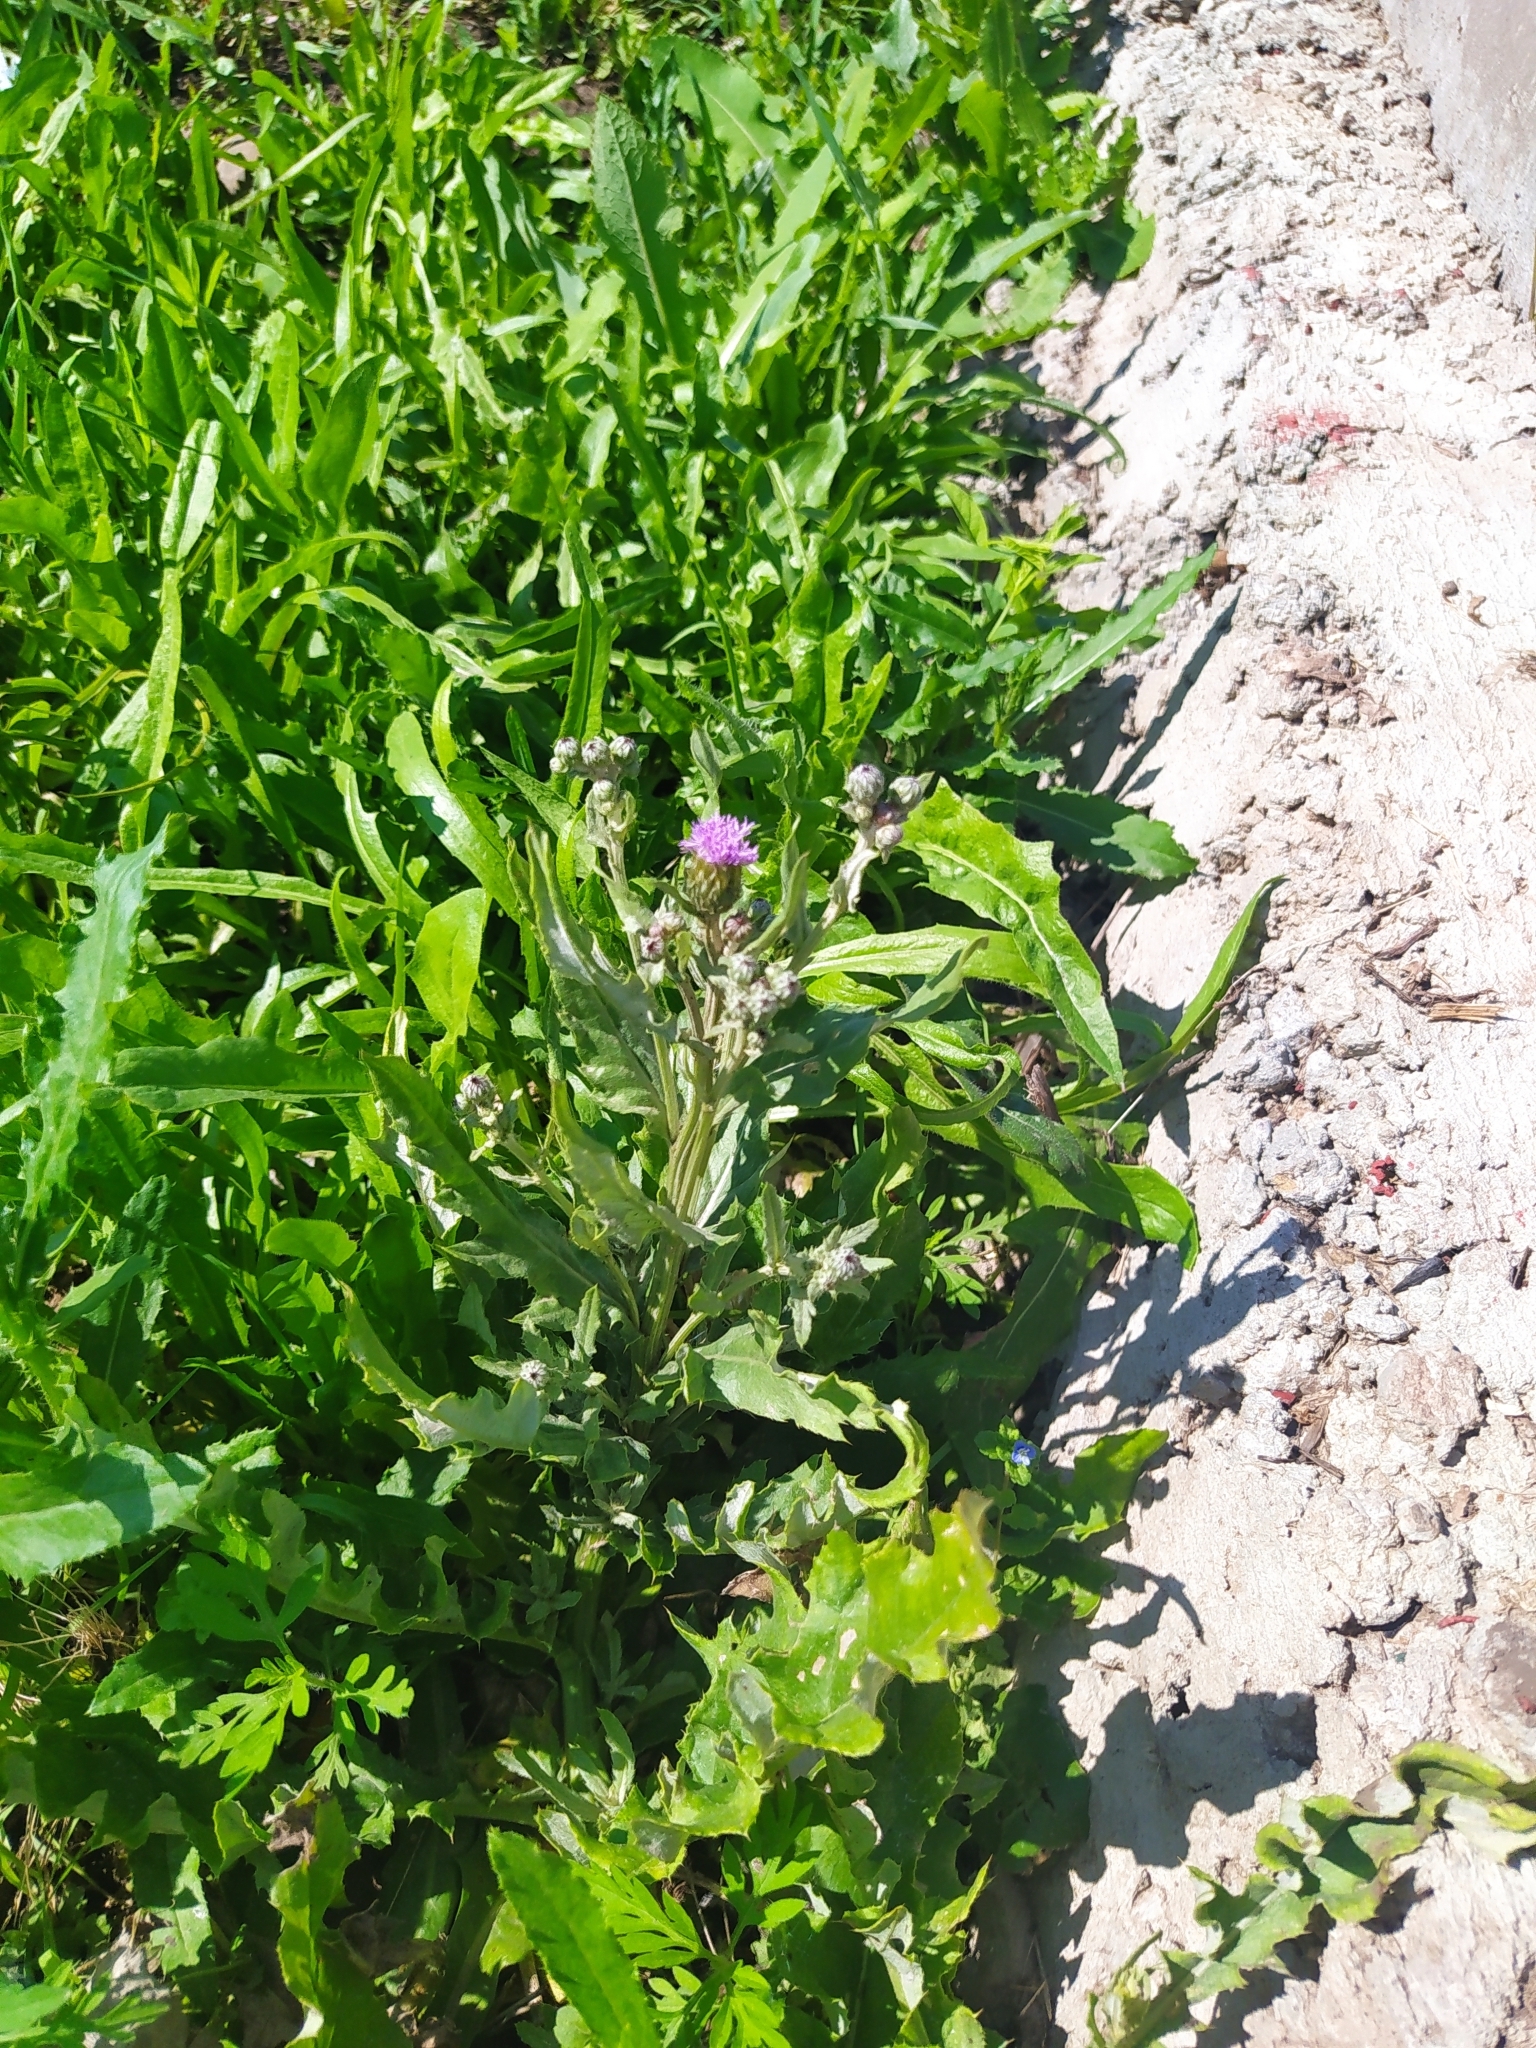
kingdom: Plantae
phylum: Tracheophyta
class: Magnoliopsida
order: Asterales
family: Asteraceae
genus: Cirsium
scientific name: Cirsium arvense
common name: Creeping thistle
